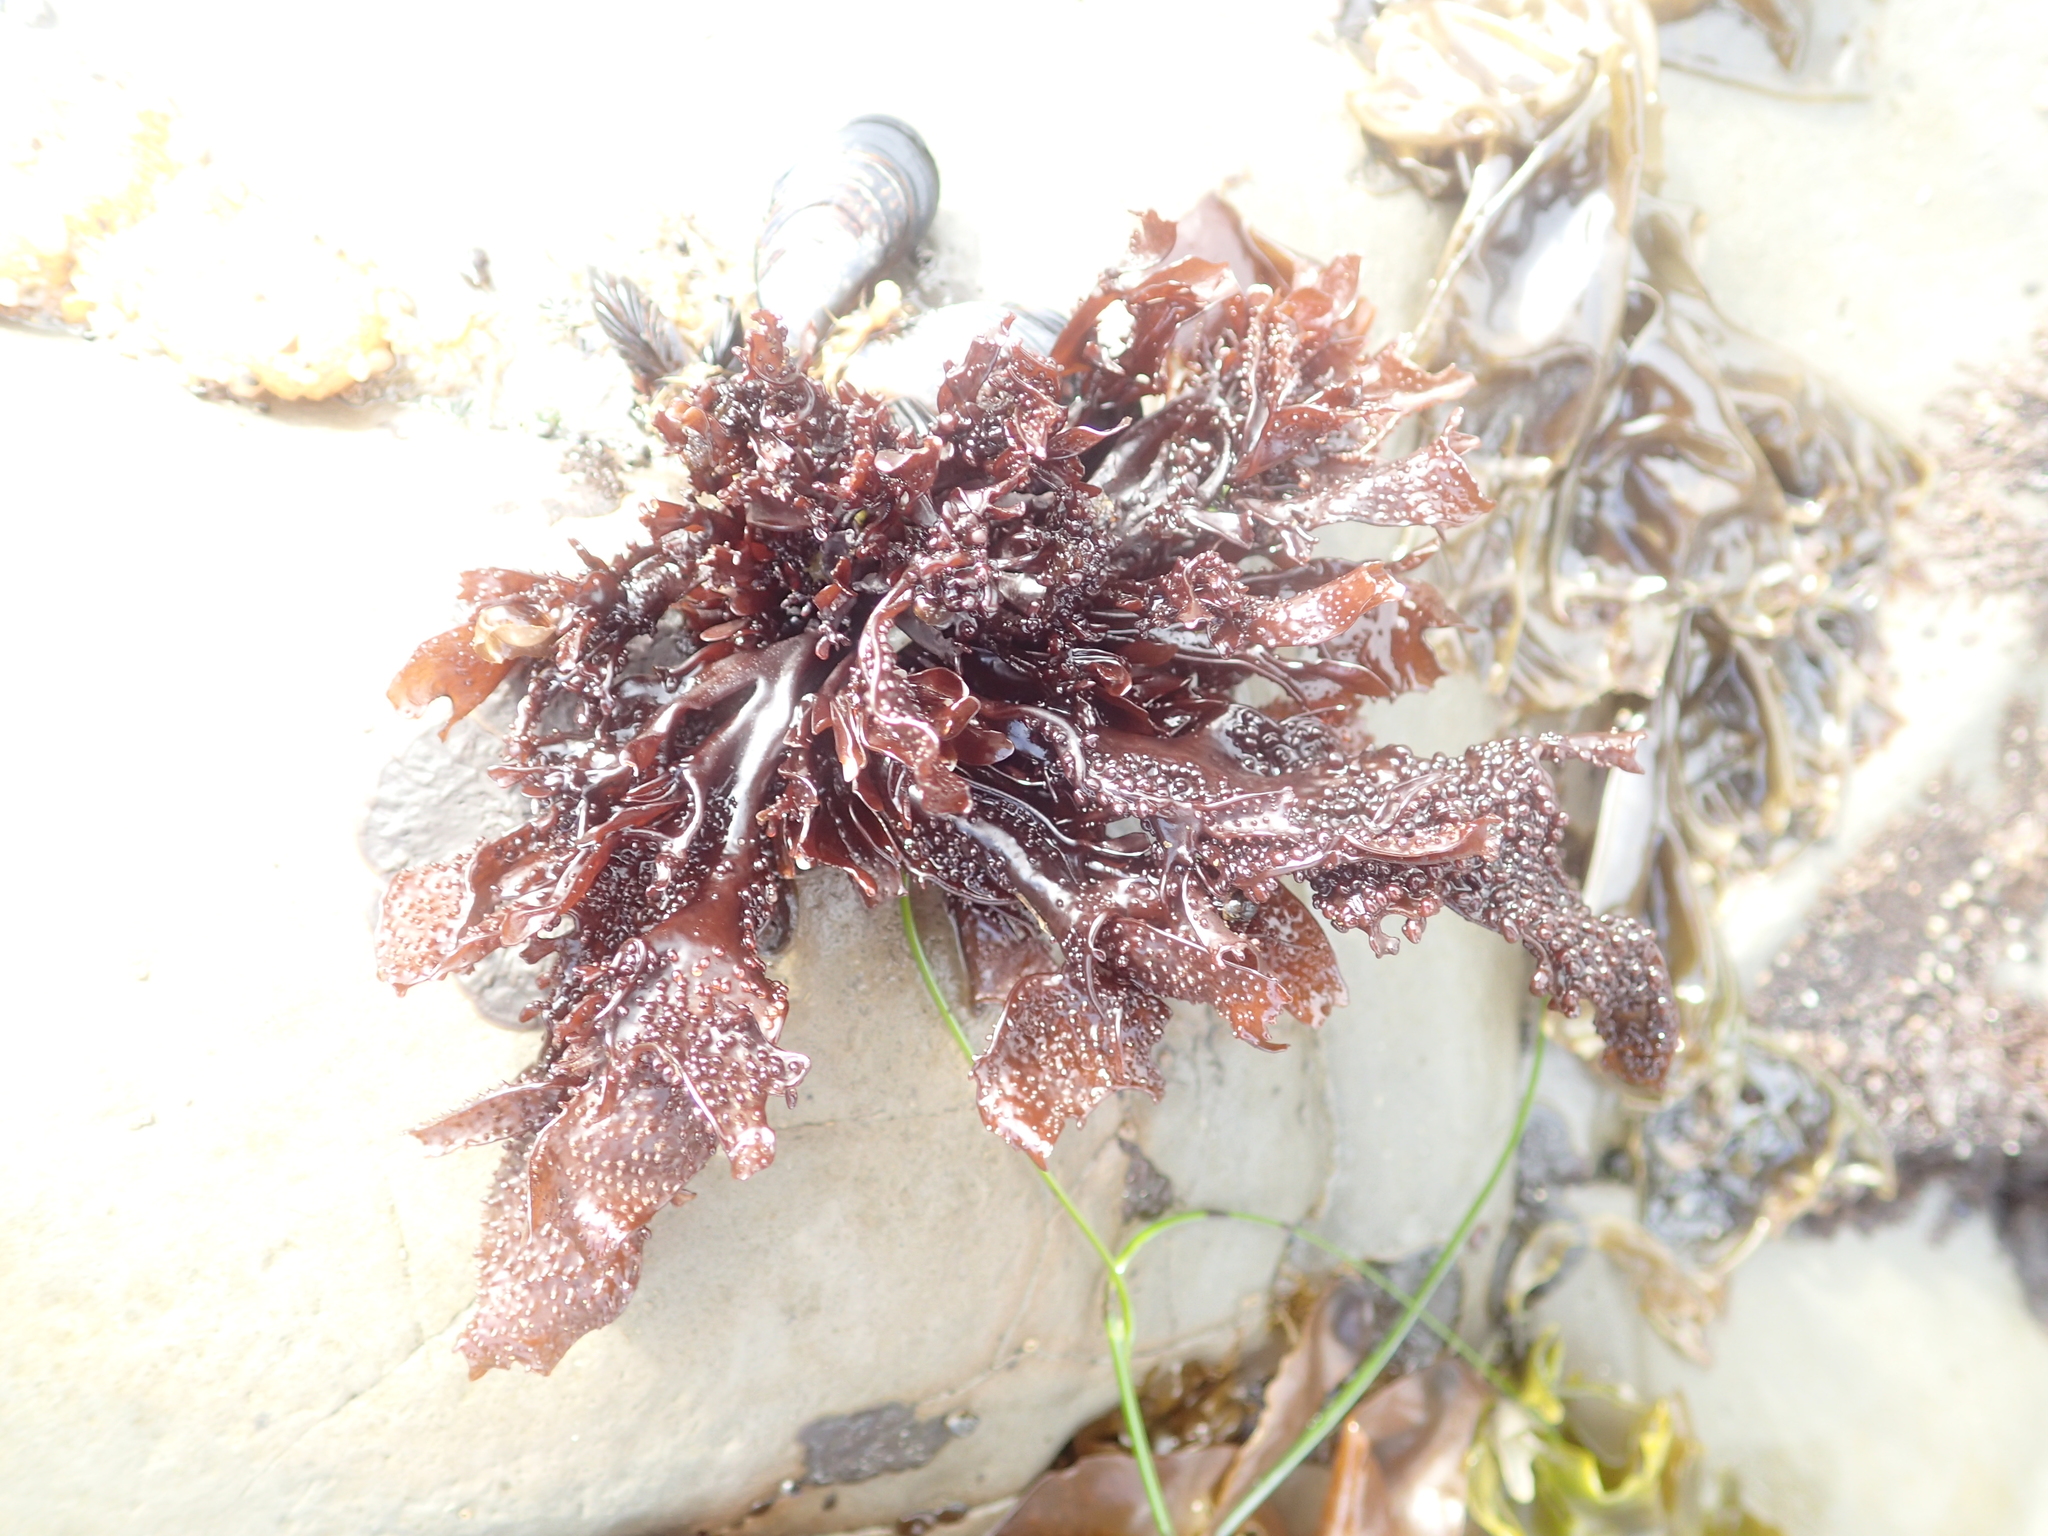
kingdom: Plantae
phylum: Rhodophyta
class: Florideophyceae
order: Gigartinales
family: Phyllophoraceae
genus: Mastocarpus
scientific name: Mastocarpus papillatus
